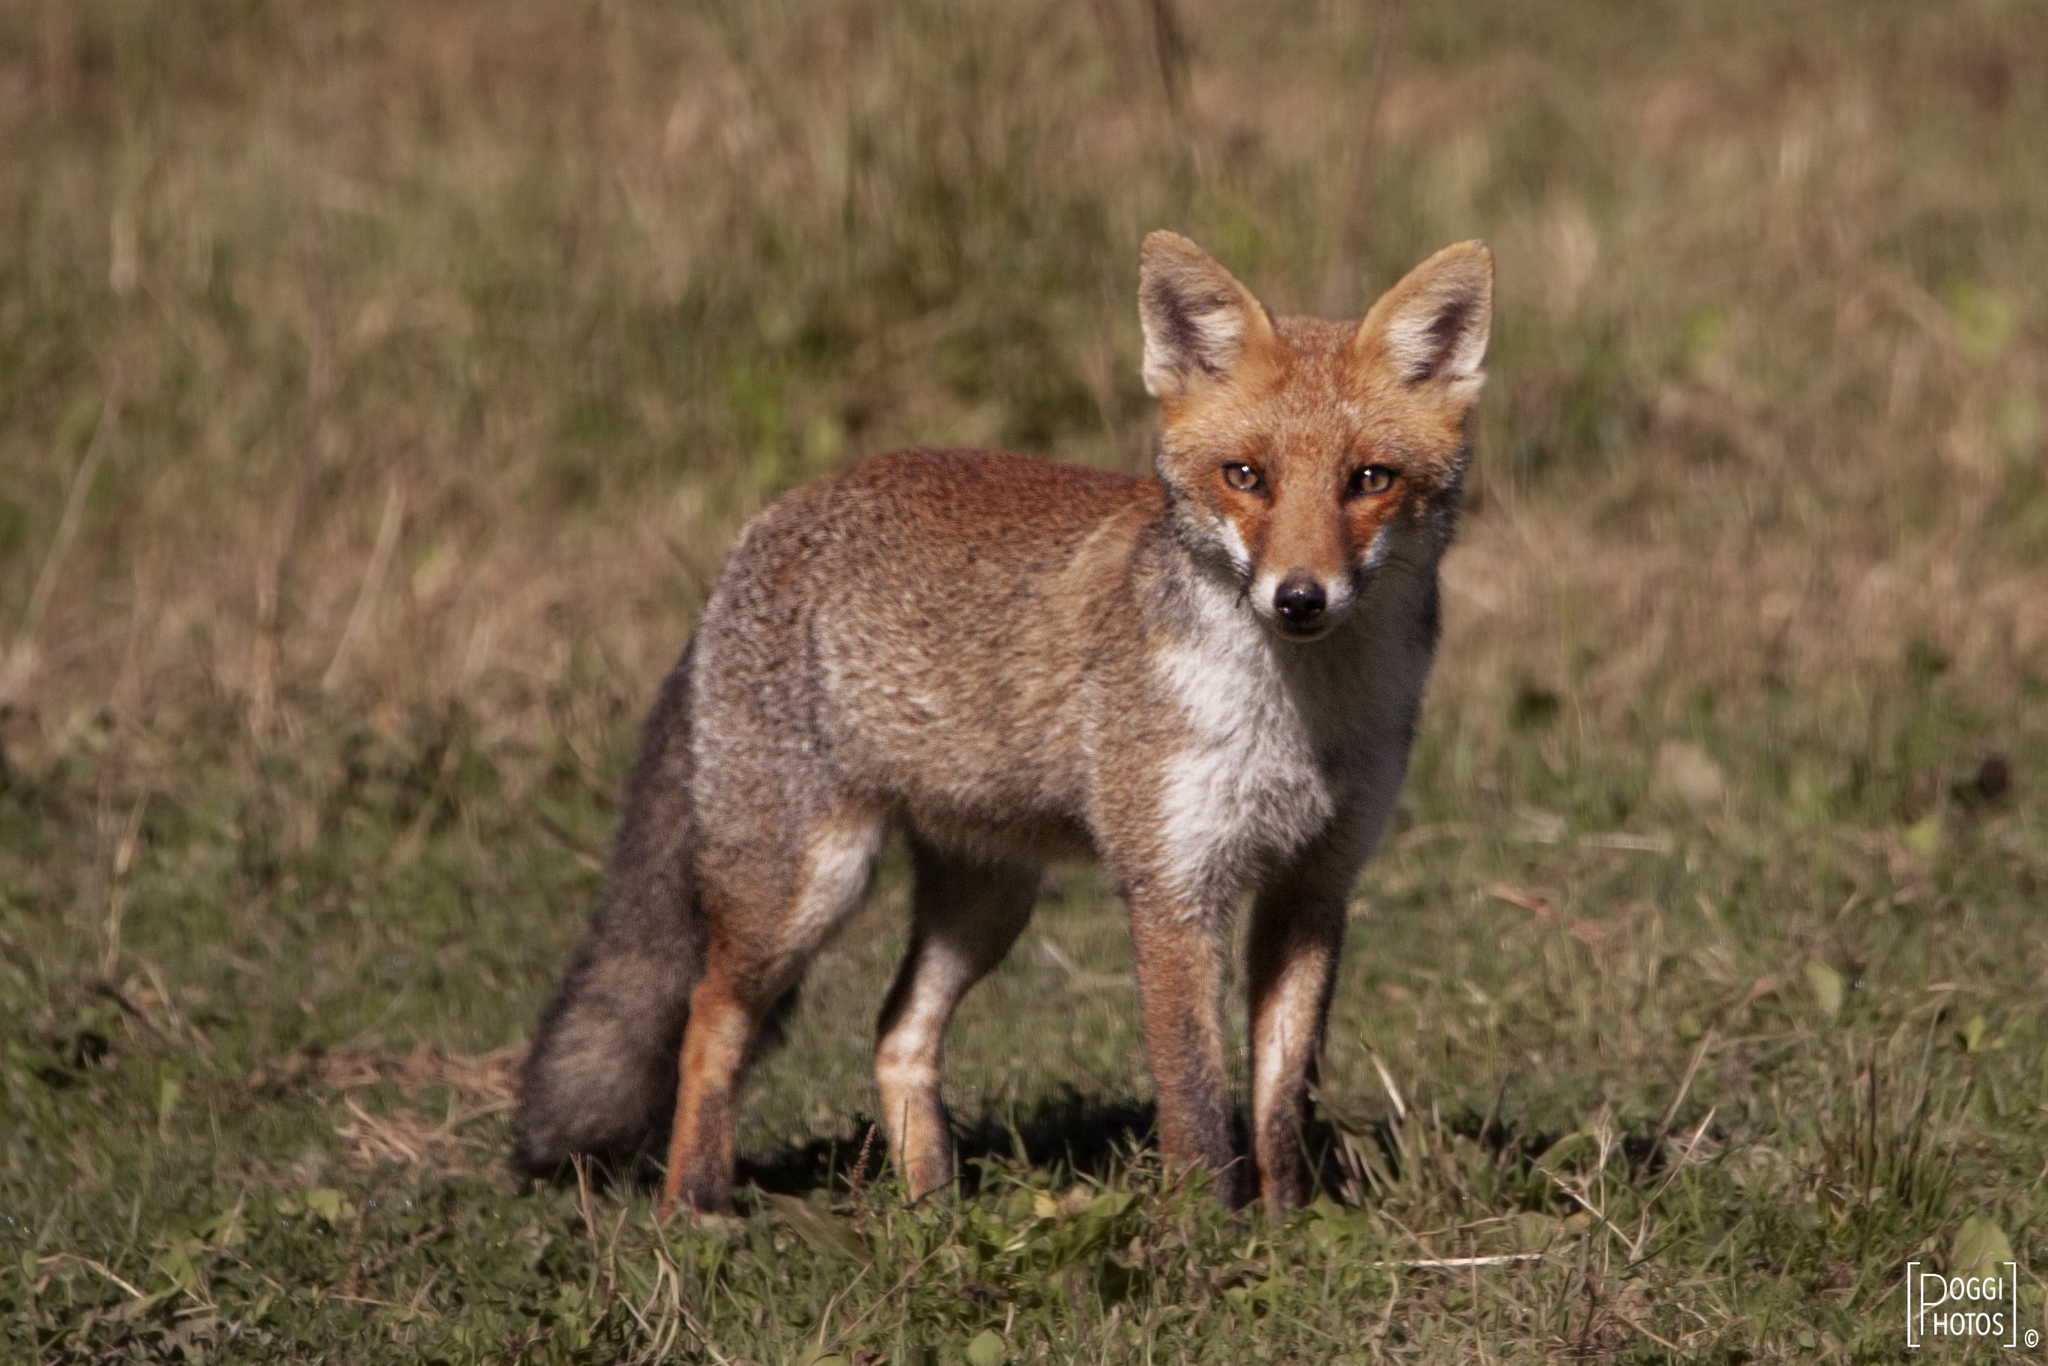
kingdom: Animalia
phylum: Chordata
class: Mammalia
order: Carnivora
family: Canidae
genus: Vulpes
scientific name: Vulpes vulpes
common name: Red fox
